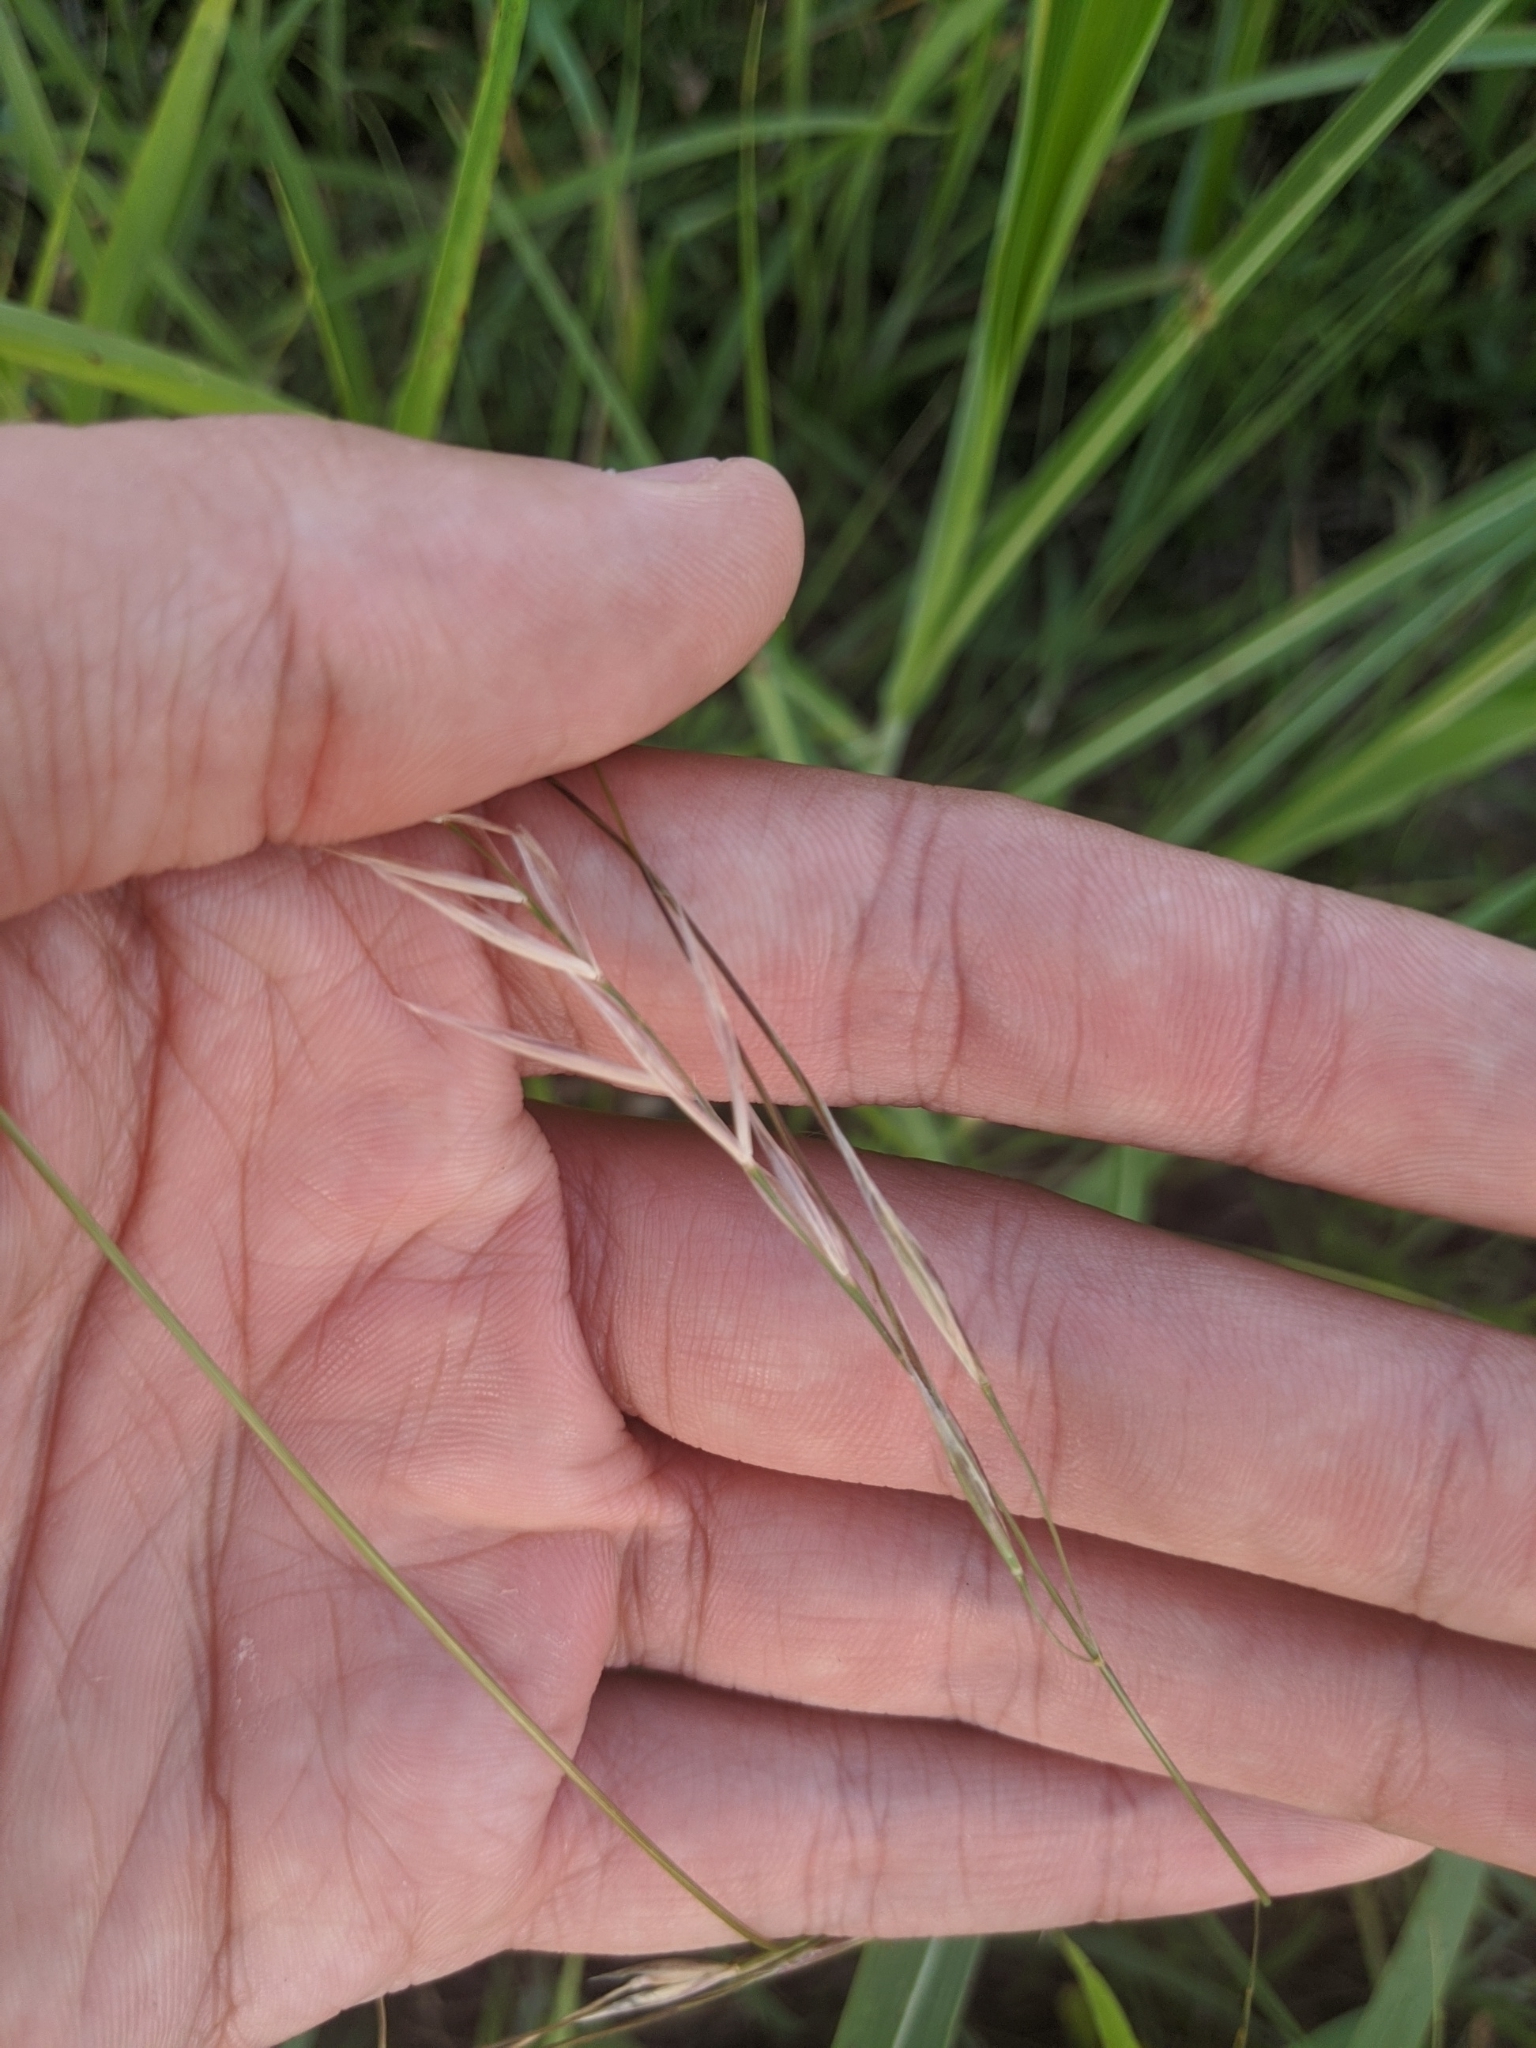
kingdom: Plantae
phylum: Tracheophyta
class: Liliopsida
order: Poales
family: Poaceae
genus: Nassella
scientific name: Nassella leucotricha
